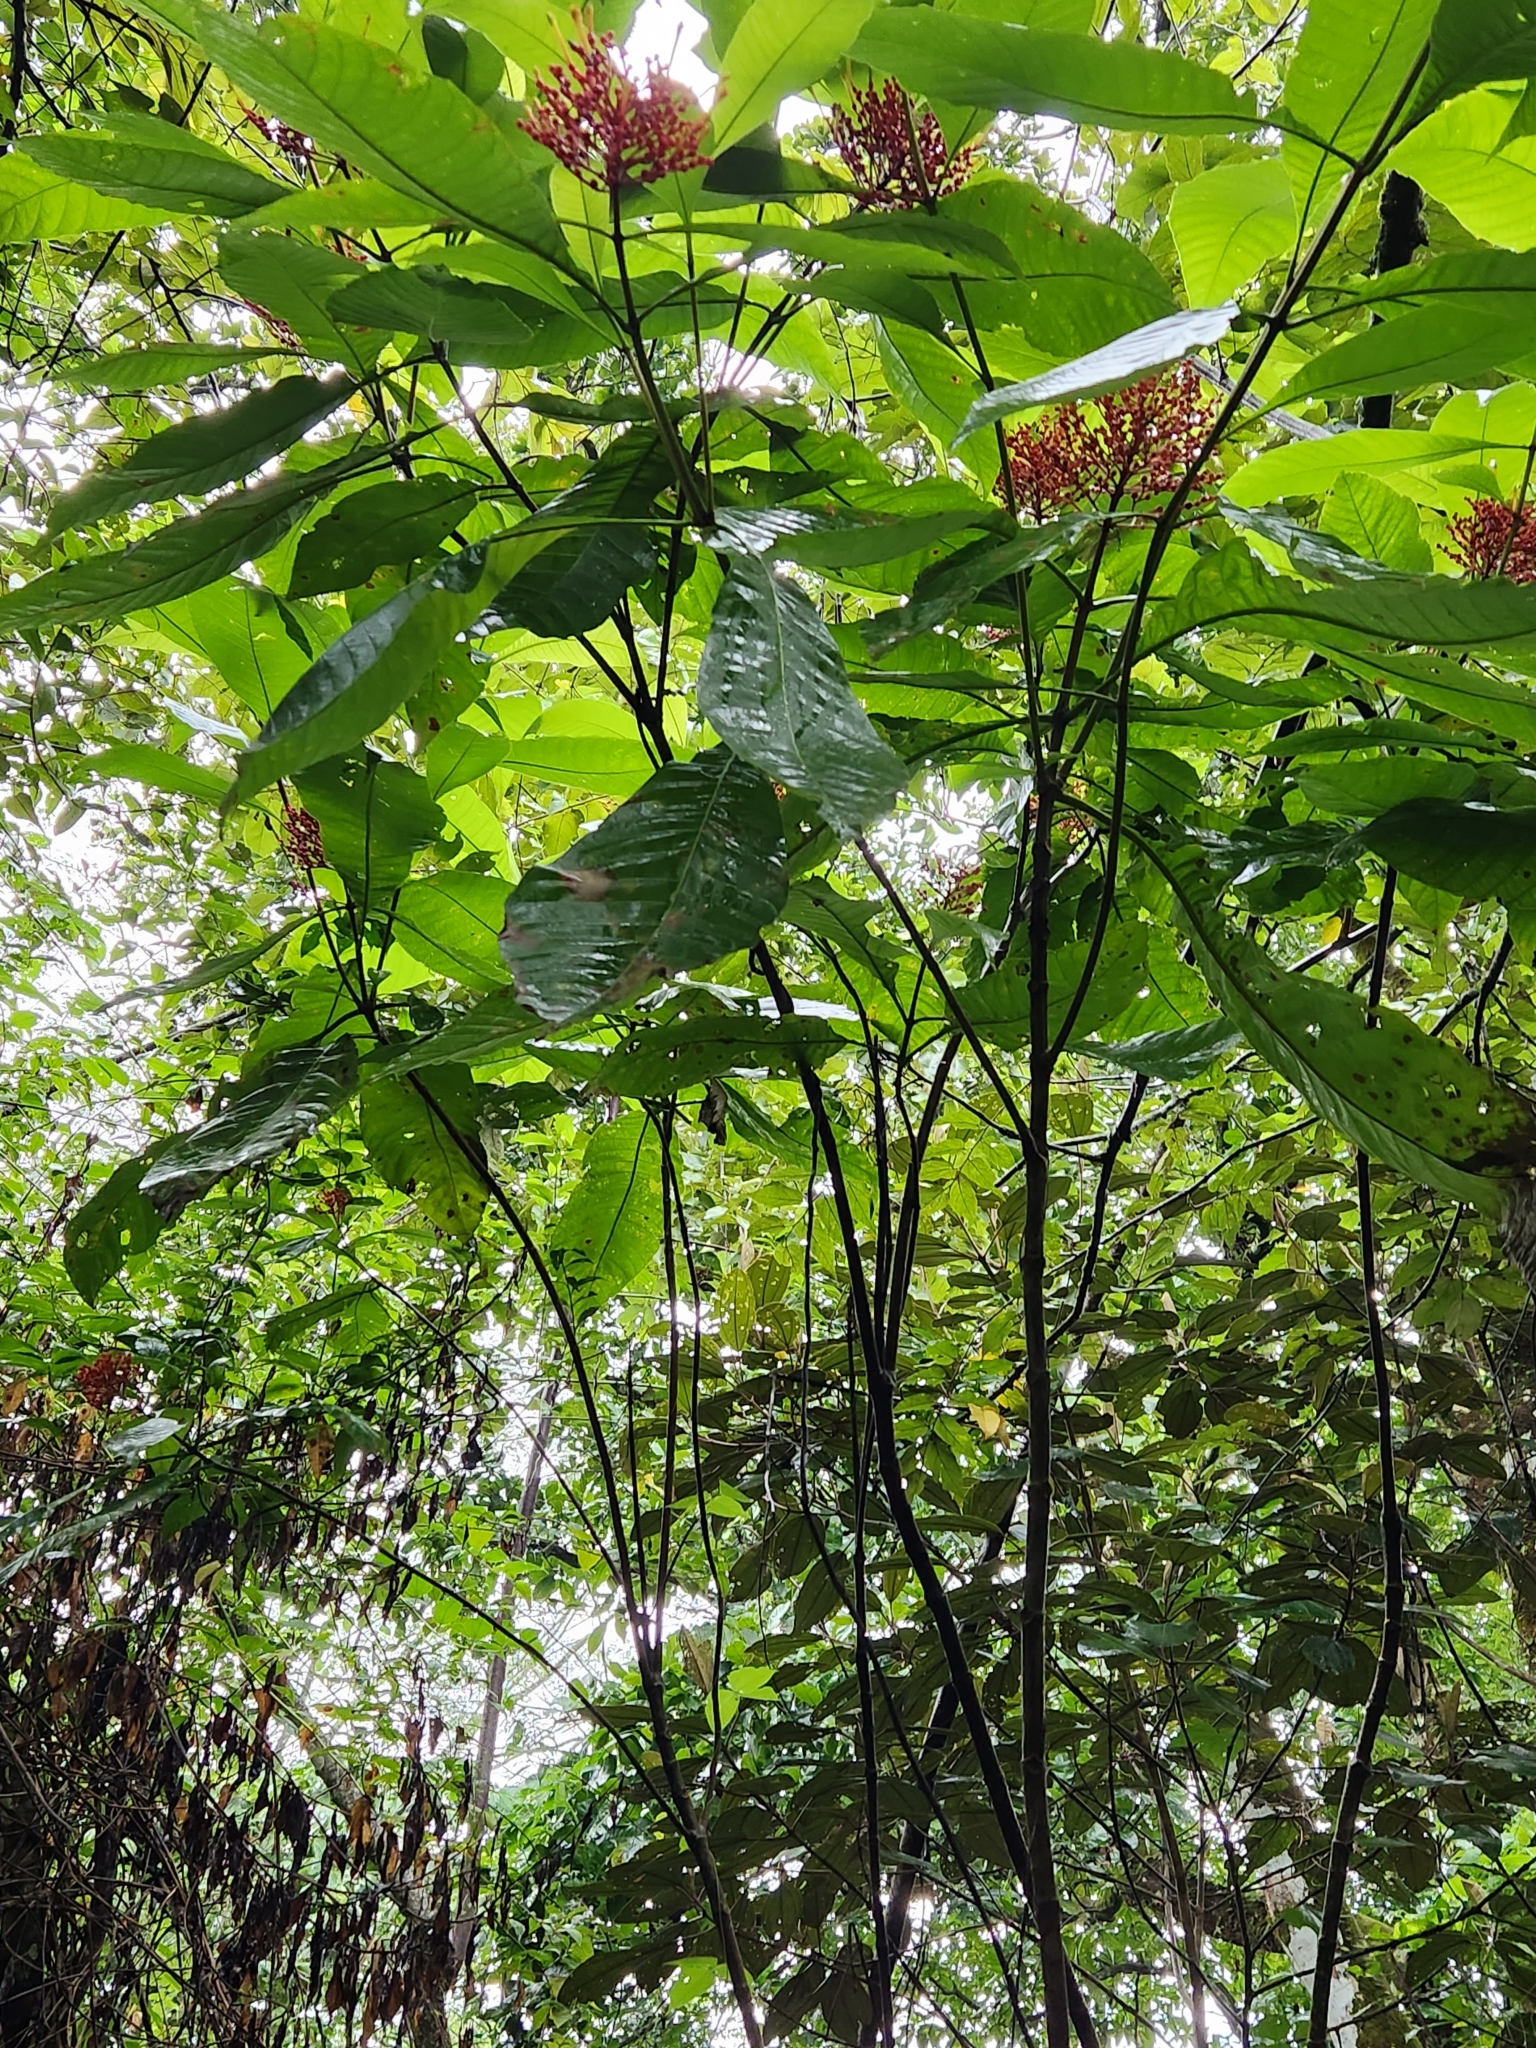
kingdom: Plantae
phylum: Tracheophyta
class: Magnoliopsida
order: Gentianales
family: Rubiaceae
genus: Isertia
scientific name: Isertia haenkeana
